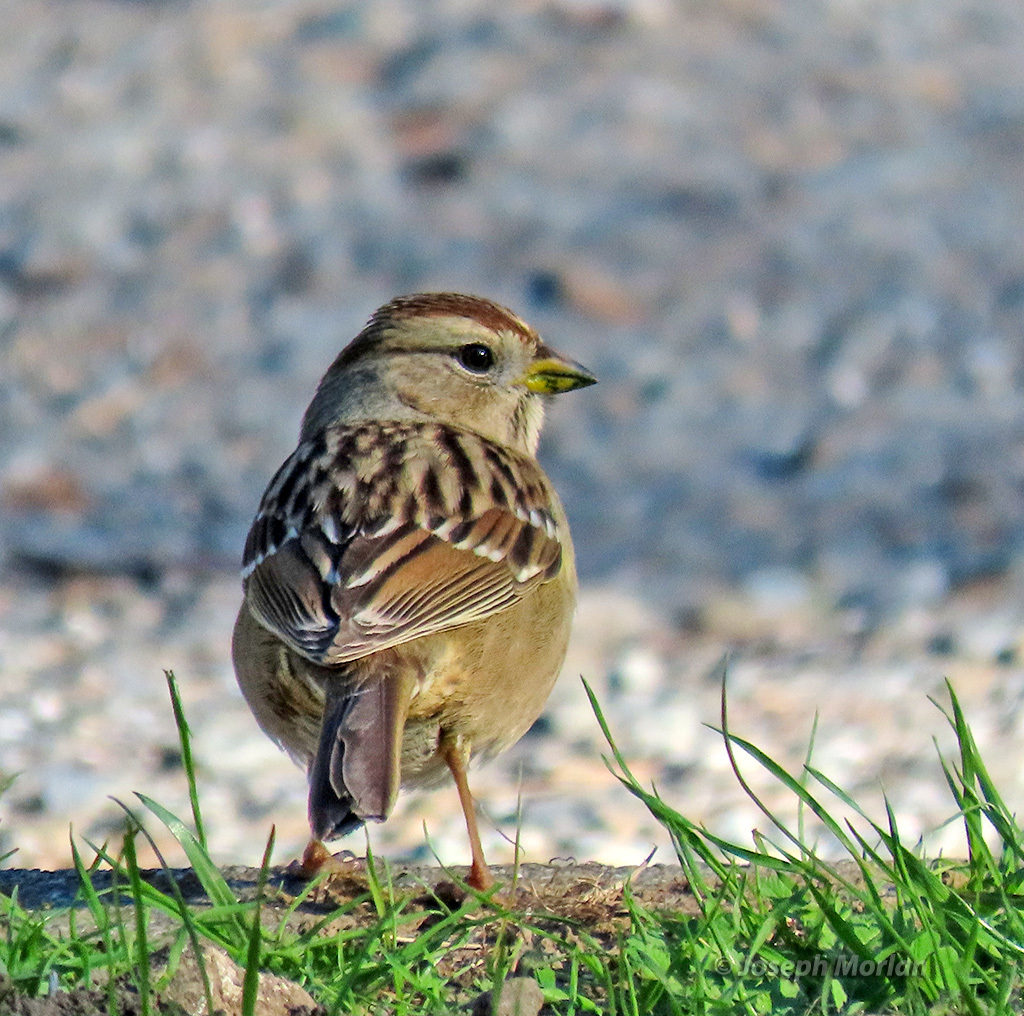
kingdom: Animalia
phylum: Chordata
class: Aves
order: Passeriformes
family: Passerellidae
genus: Zonotrichia
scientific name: Zonotrichia leucophrys
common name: White-crowned sparrow
